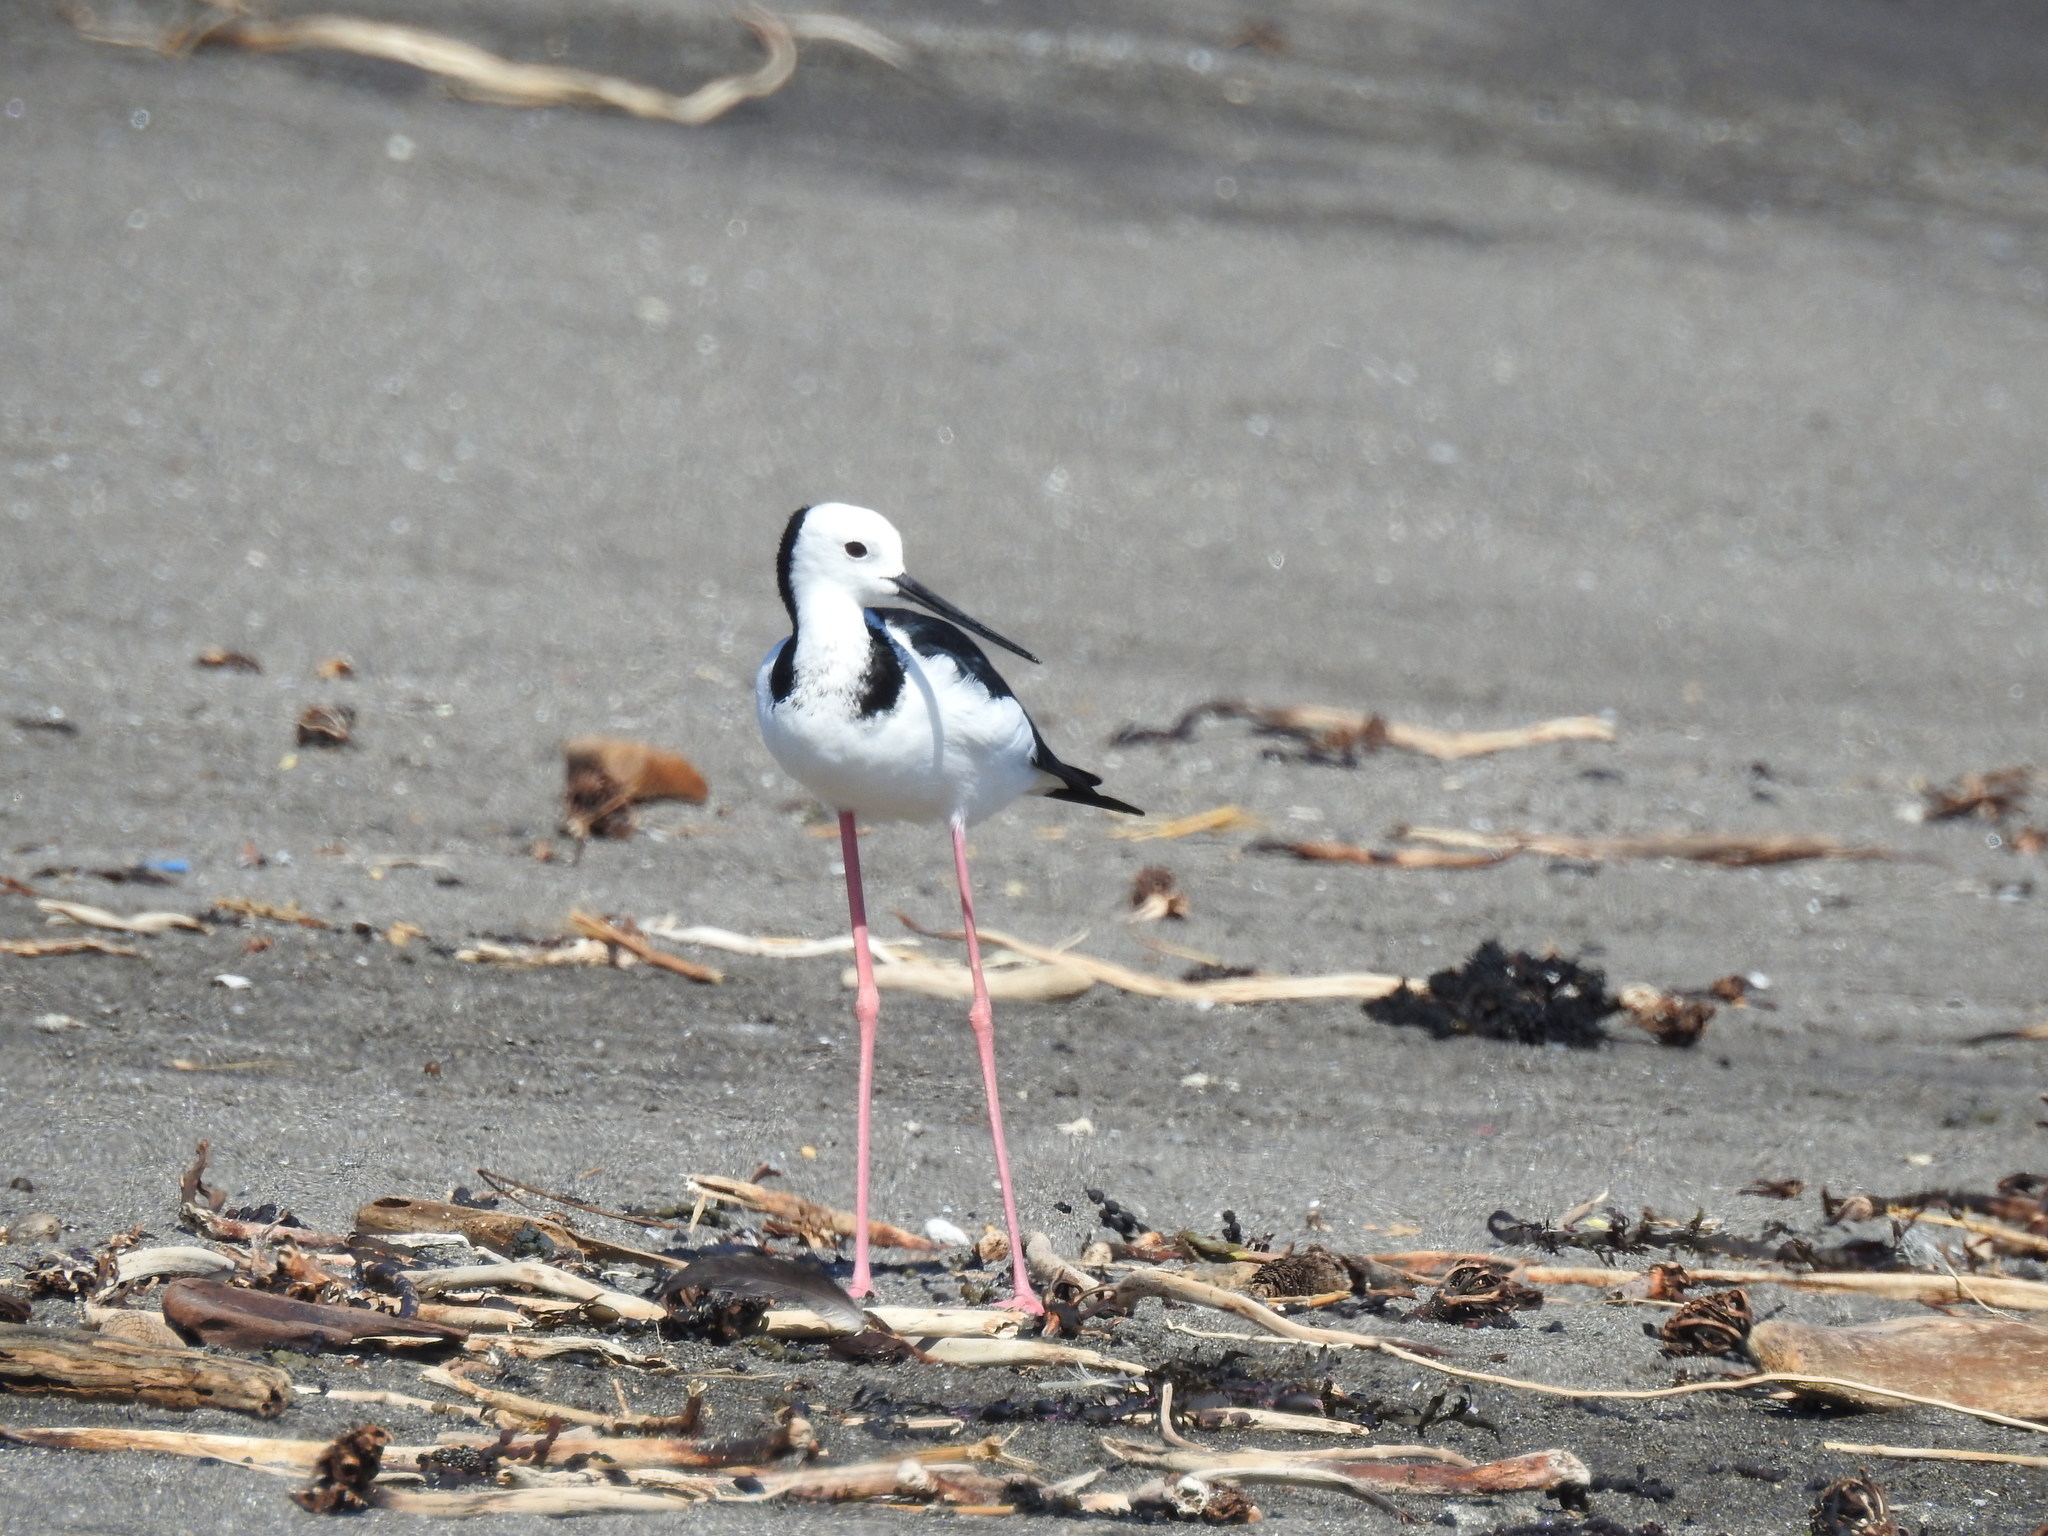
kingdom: Animalia
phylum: Chordata
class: Aves
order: Charadriiformes
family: Recurvirostridae
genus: Himantopus
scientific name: Himantopus leucocephalus
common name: White-headed stilt
